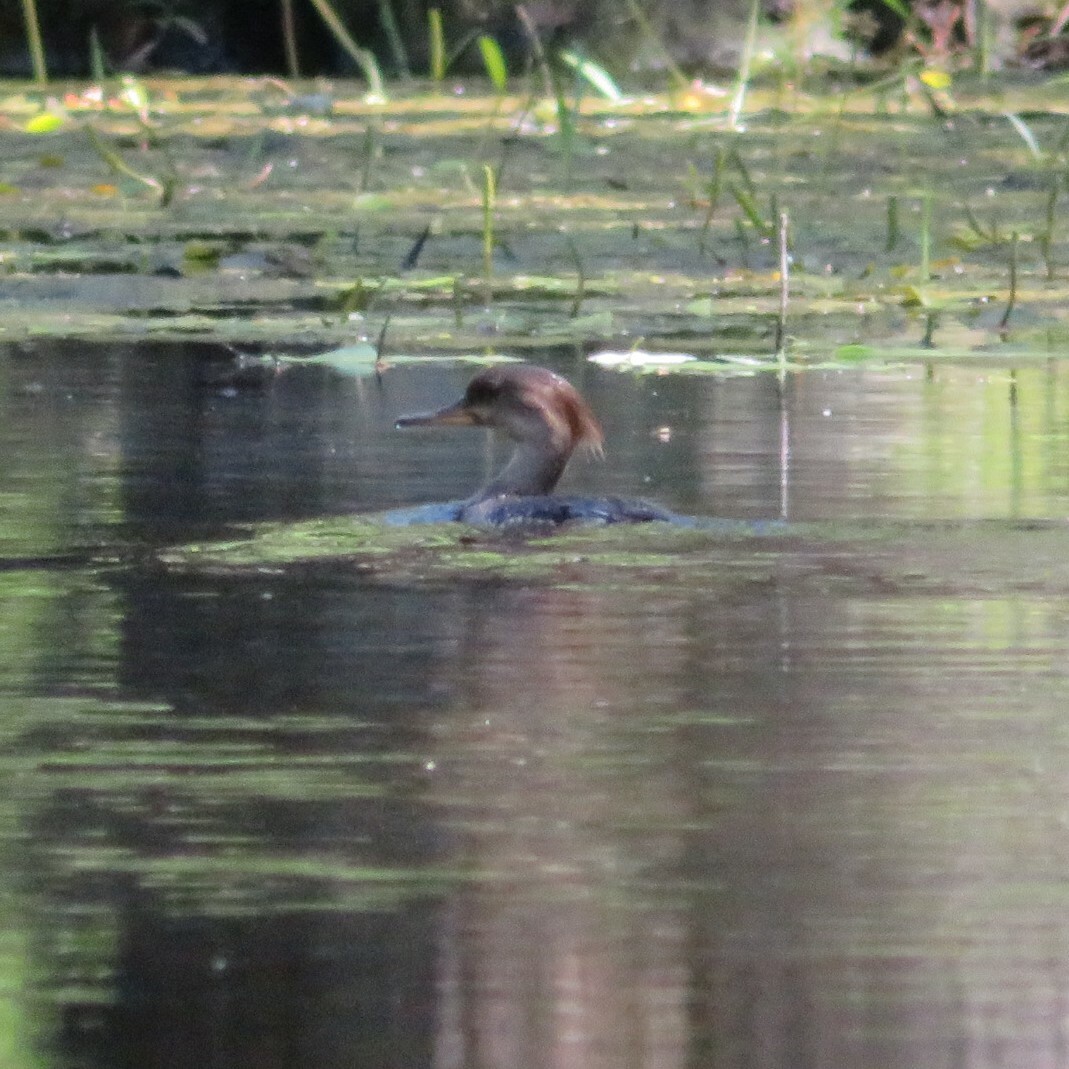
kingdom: Animalia
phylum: Chordata
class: Aves
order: Anseriformes
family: Anatidae
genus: Lophodytes
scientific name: Lophodytes cucullatus
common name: Hooded merganser
